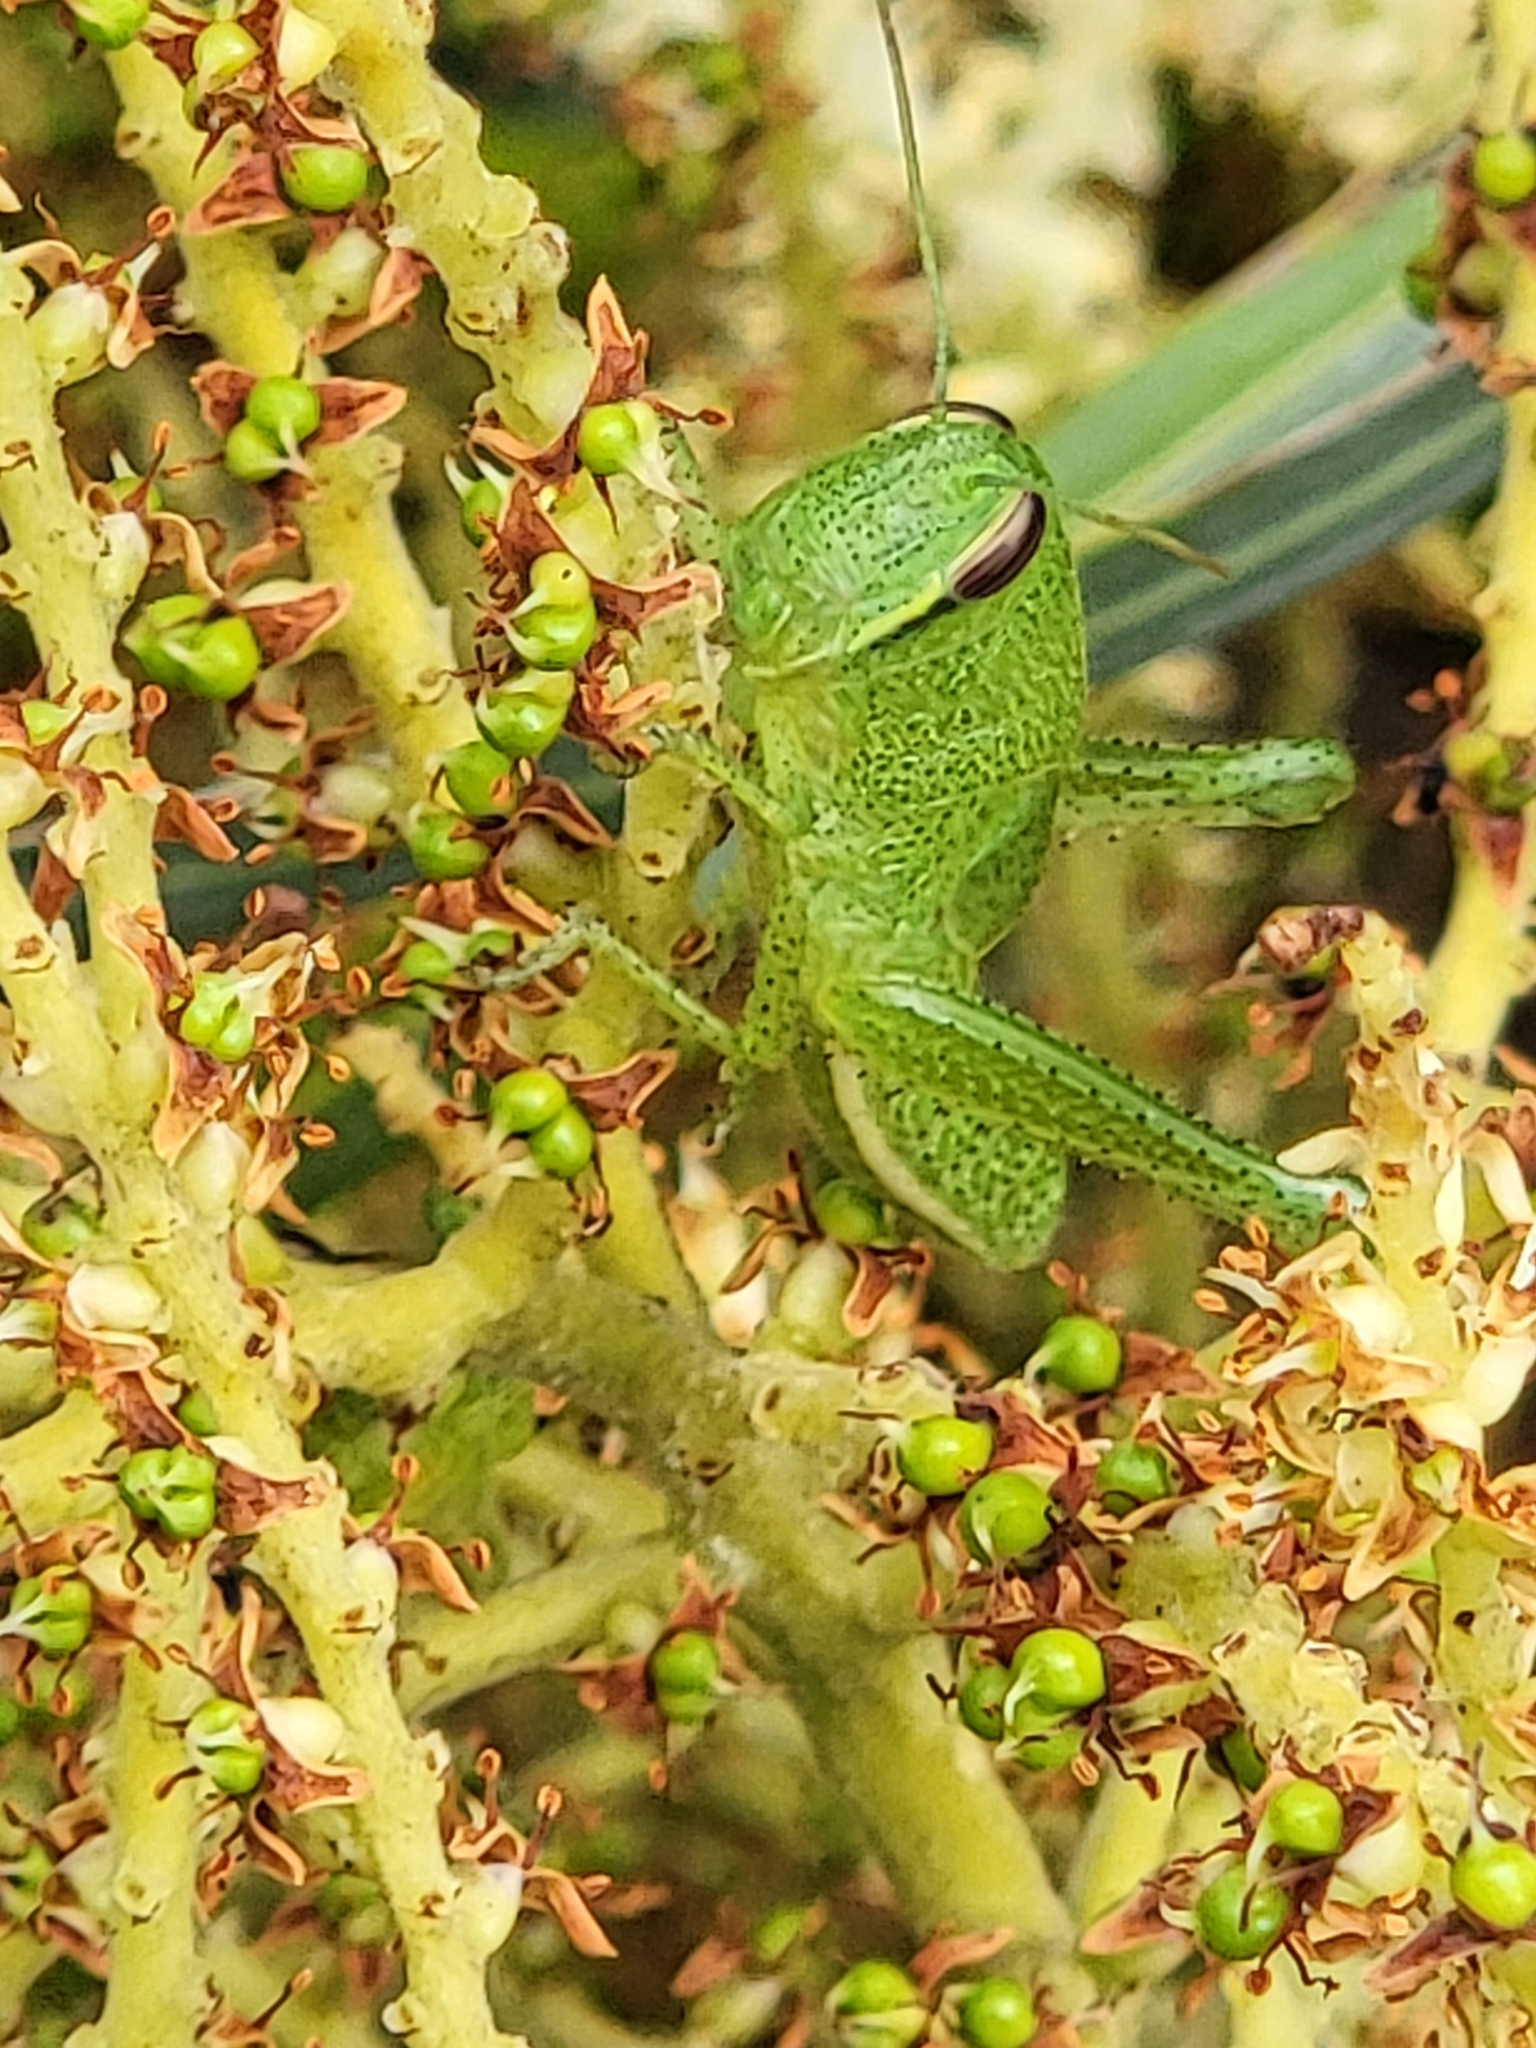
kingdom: Animalia
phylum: Arthropoda
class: Insecta
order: Orthoptera
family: Acrididae
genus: Schistocerca
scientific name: Schistocerca americana
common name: American bird locust
